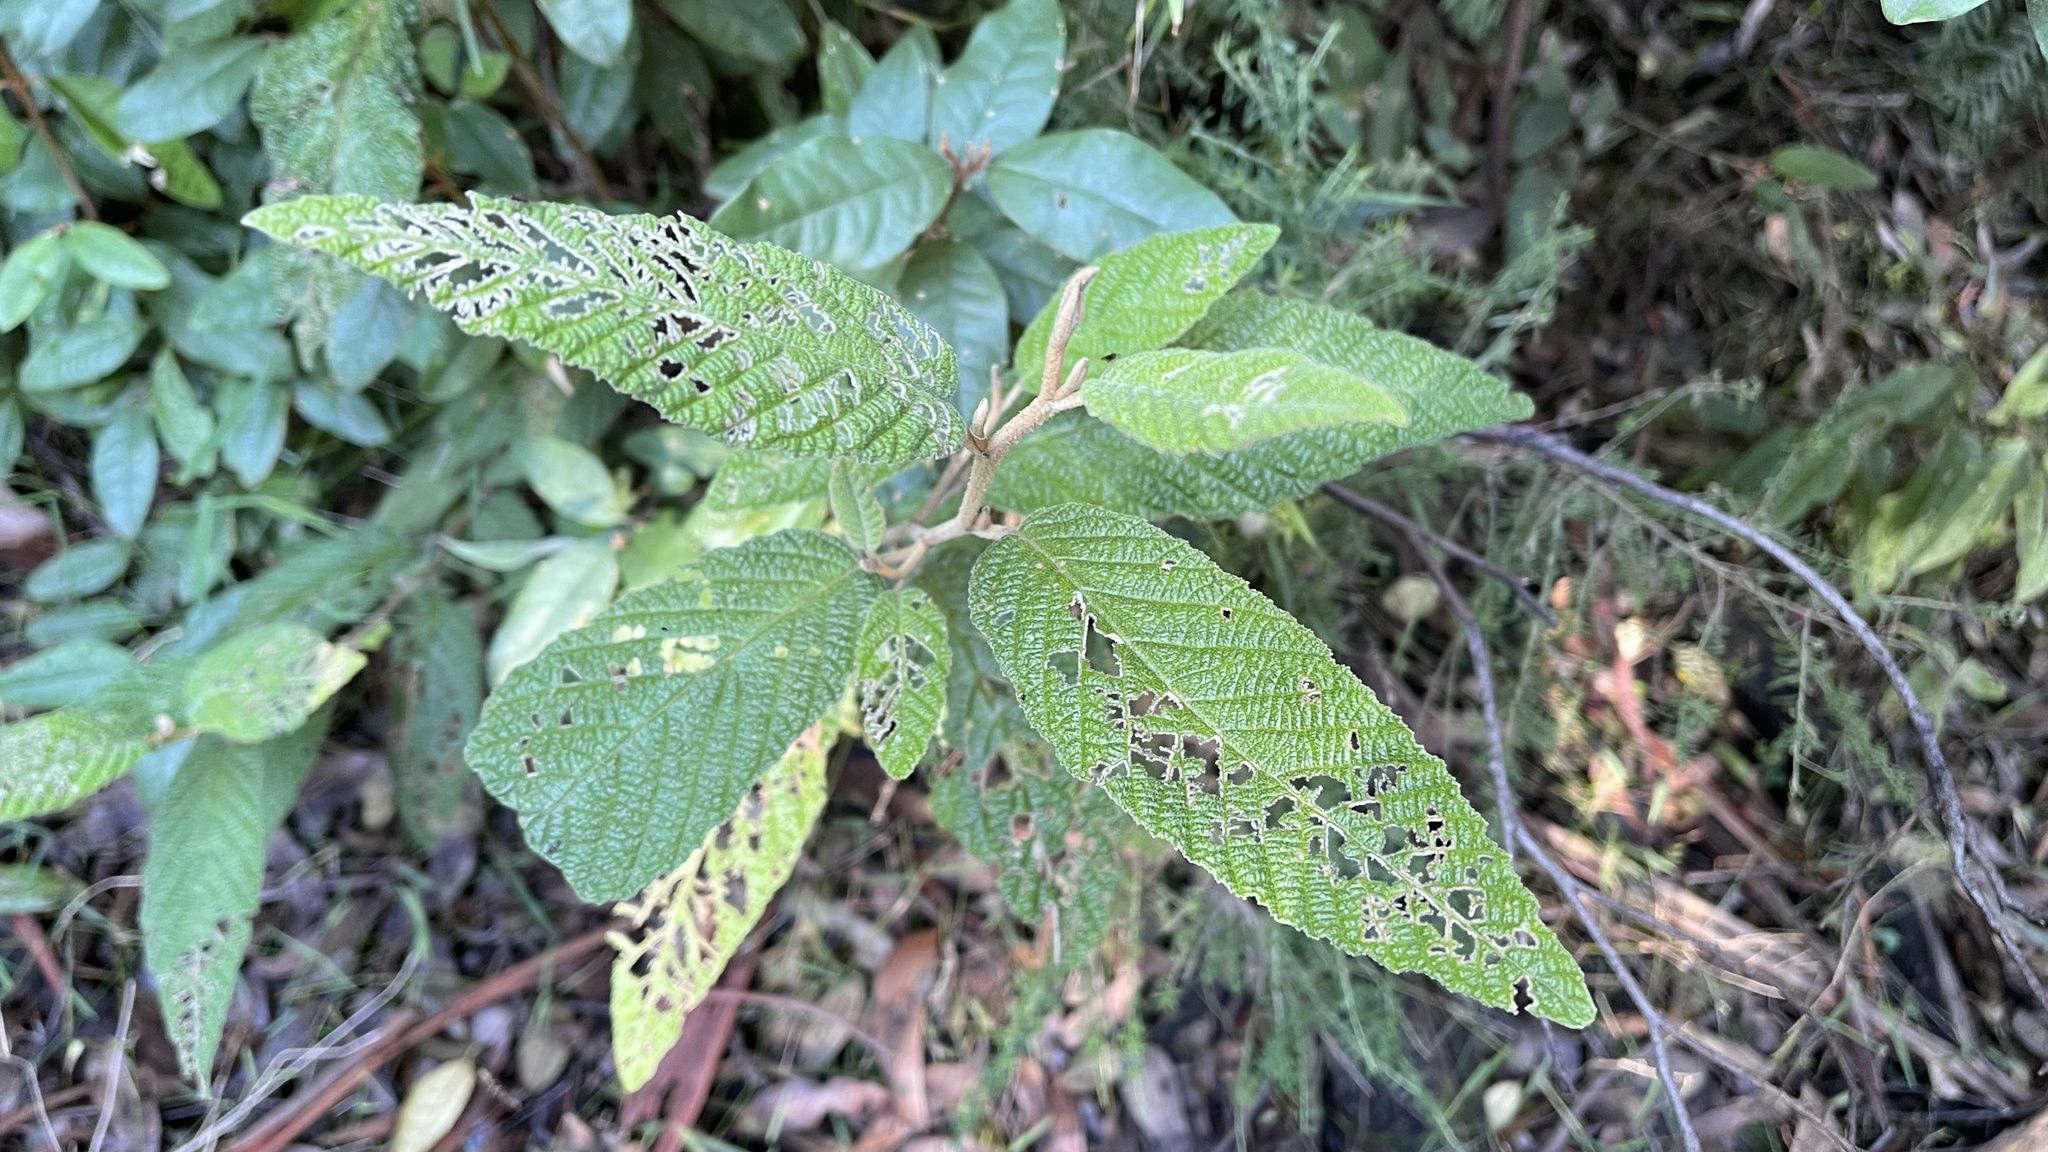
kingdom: Plantae
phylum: Tracheophyta
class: Magnoliopsida
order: Rosales
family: Rhamnaceae
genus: Pomaderris
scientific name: Pomaderris aspera
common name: Hazel pomaderris
